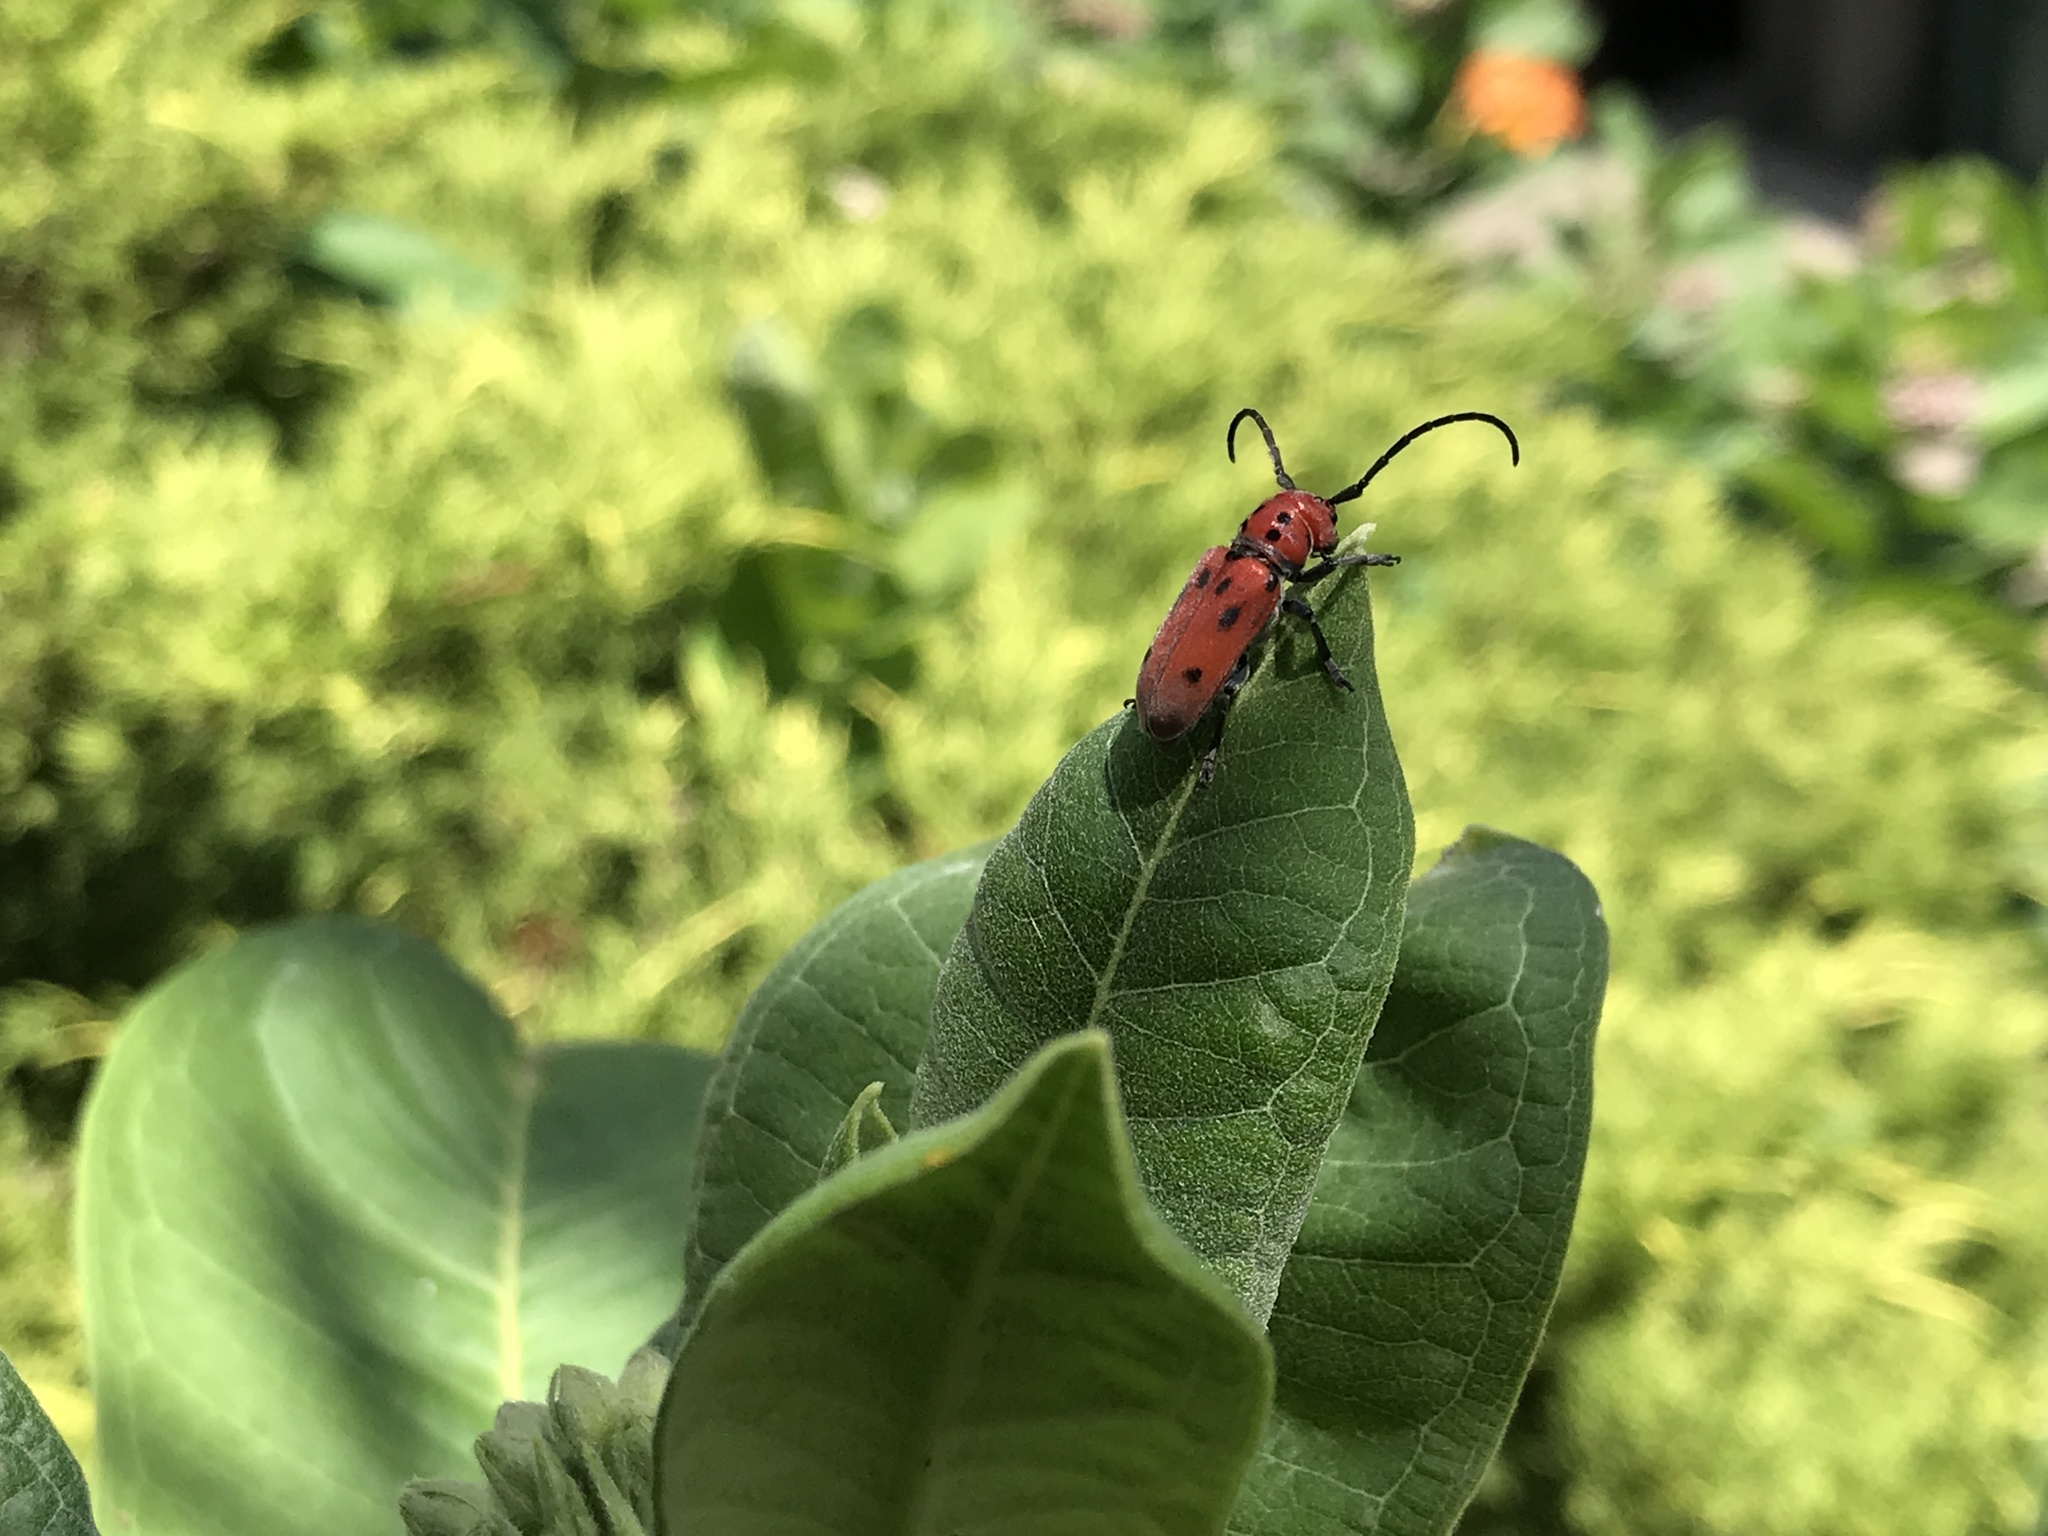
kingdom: Animalia
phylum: Arthropoda
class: Insecta
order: Coleoptera
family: Cerambycidae
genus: Tetraopes
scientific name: Tetraopes tetrophthalmus
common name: Red milkweed beetle
